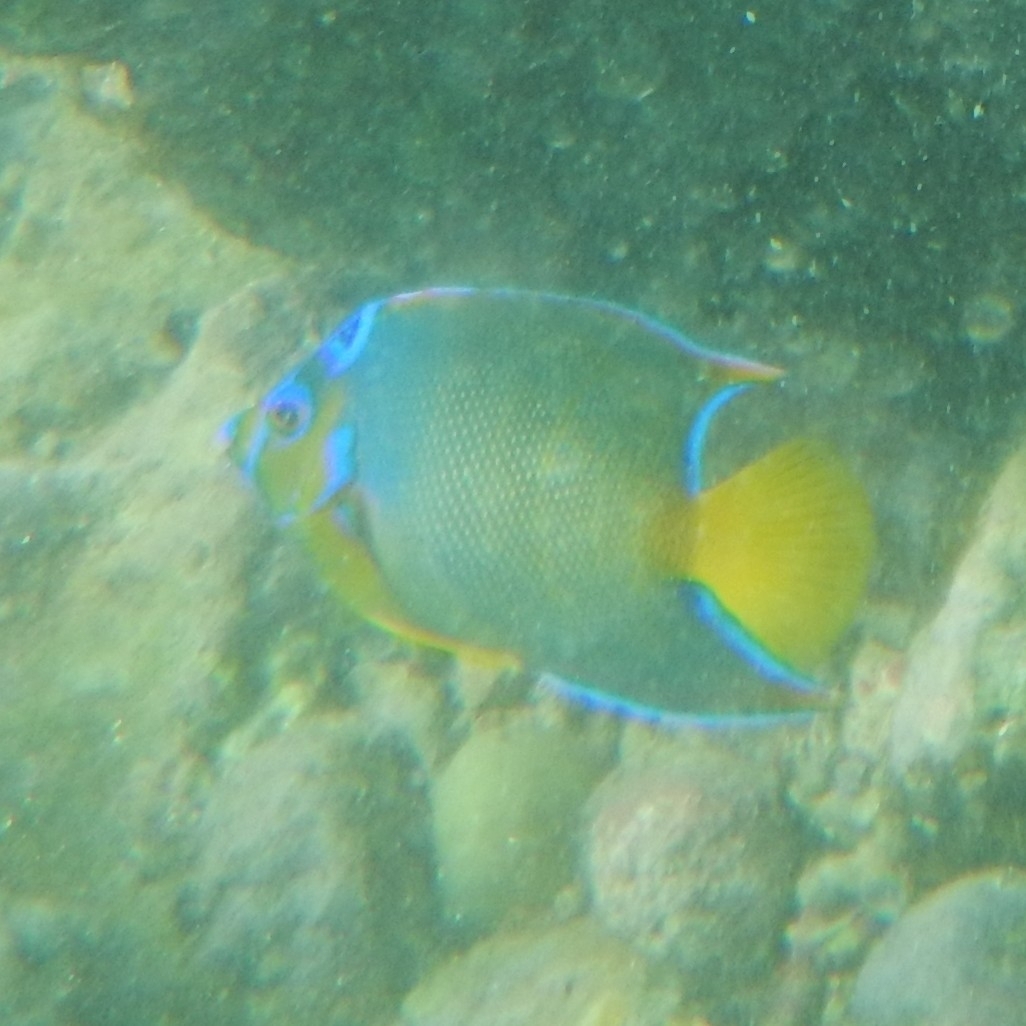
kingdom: Animalia
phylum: Chordata
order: Perciformes
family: Pomacanthidae
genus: Holacanthus
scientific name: Holacanthus ciliaris
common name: Queen angelfish
